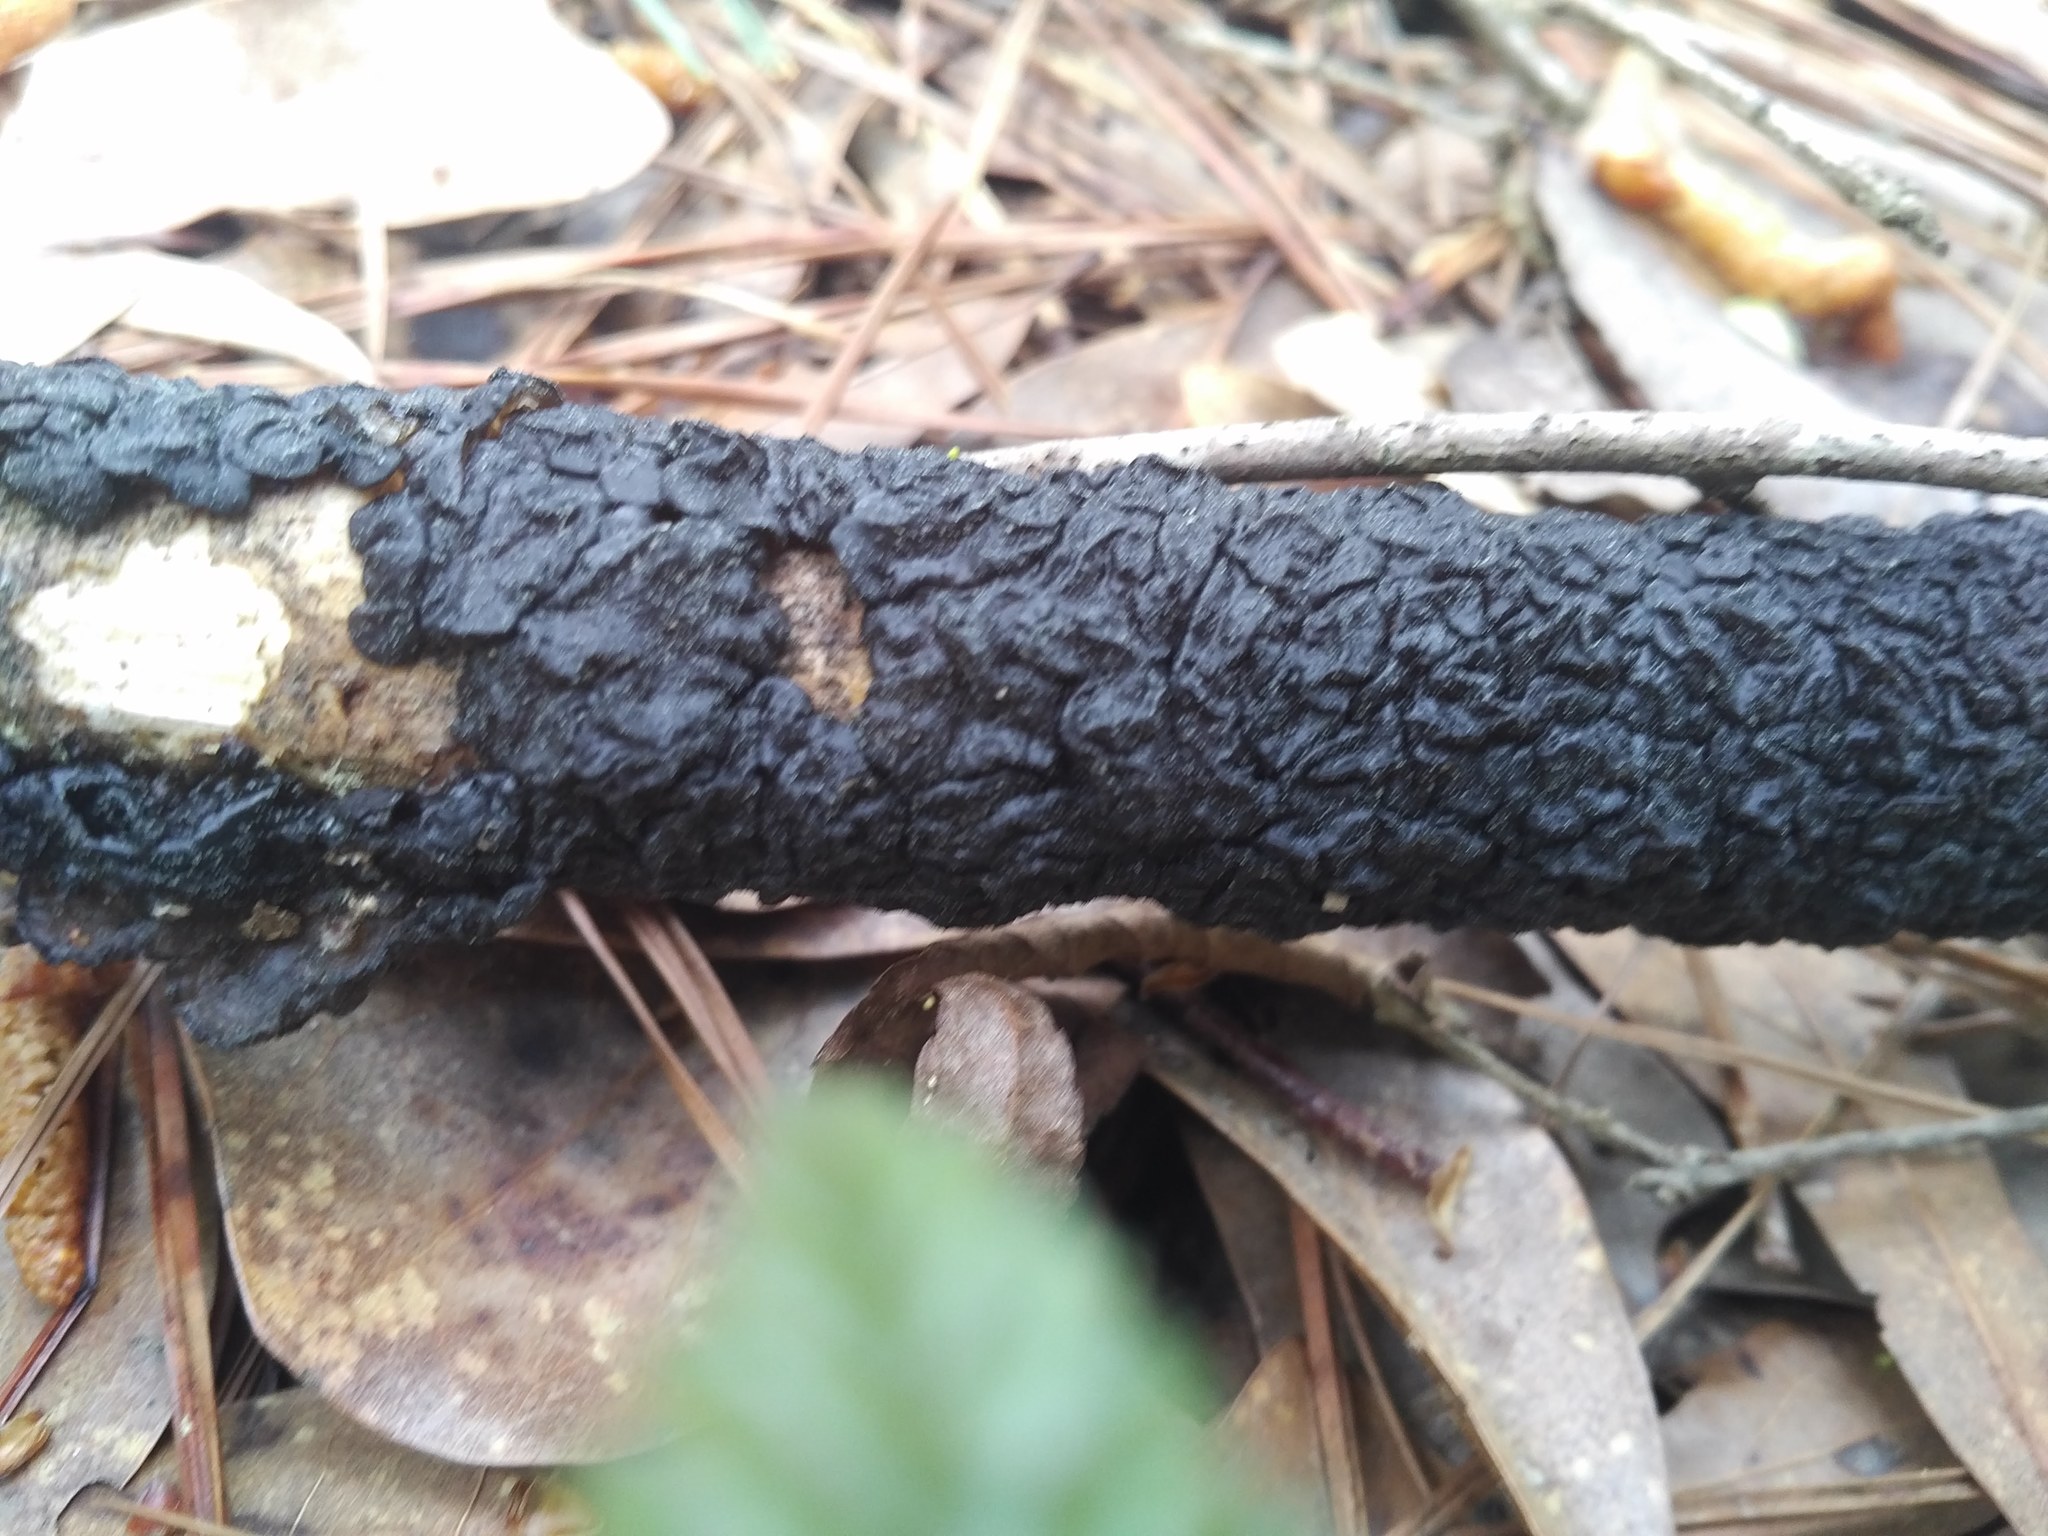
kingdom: Fungi
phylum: Basidiomycota
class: Agaricomycetes
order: Auriculariales
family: Auriculariaceae
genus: Exidia
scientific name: Exidia glandulosa
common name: Witches' butter
